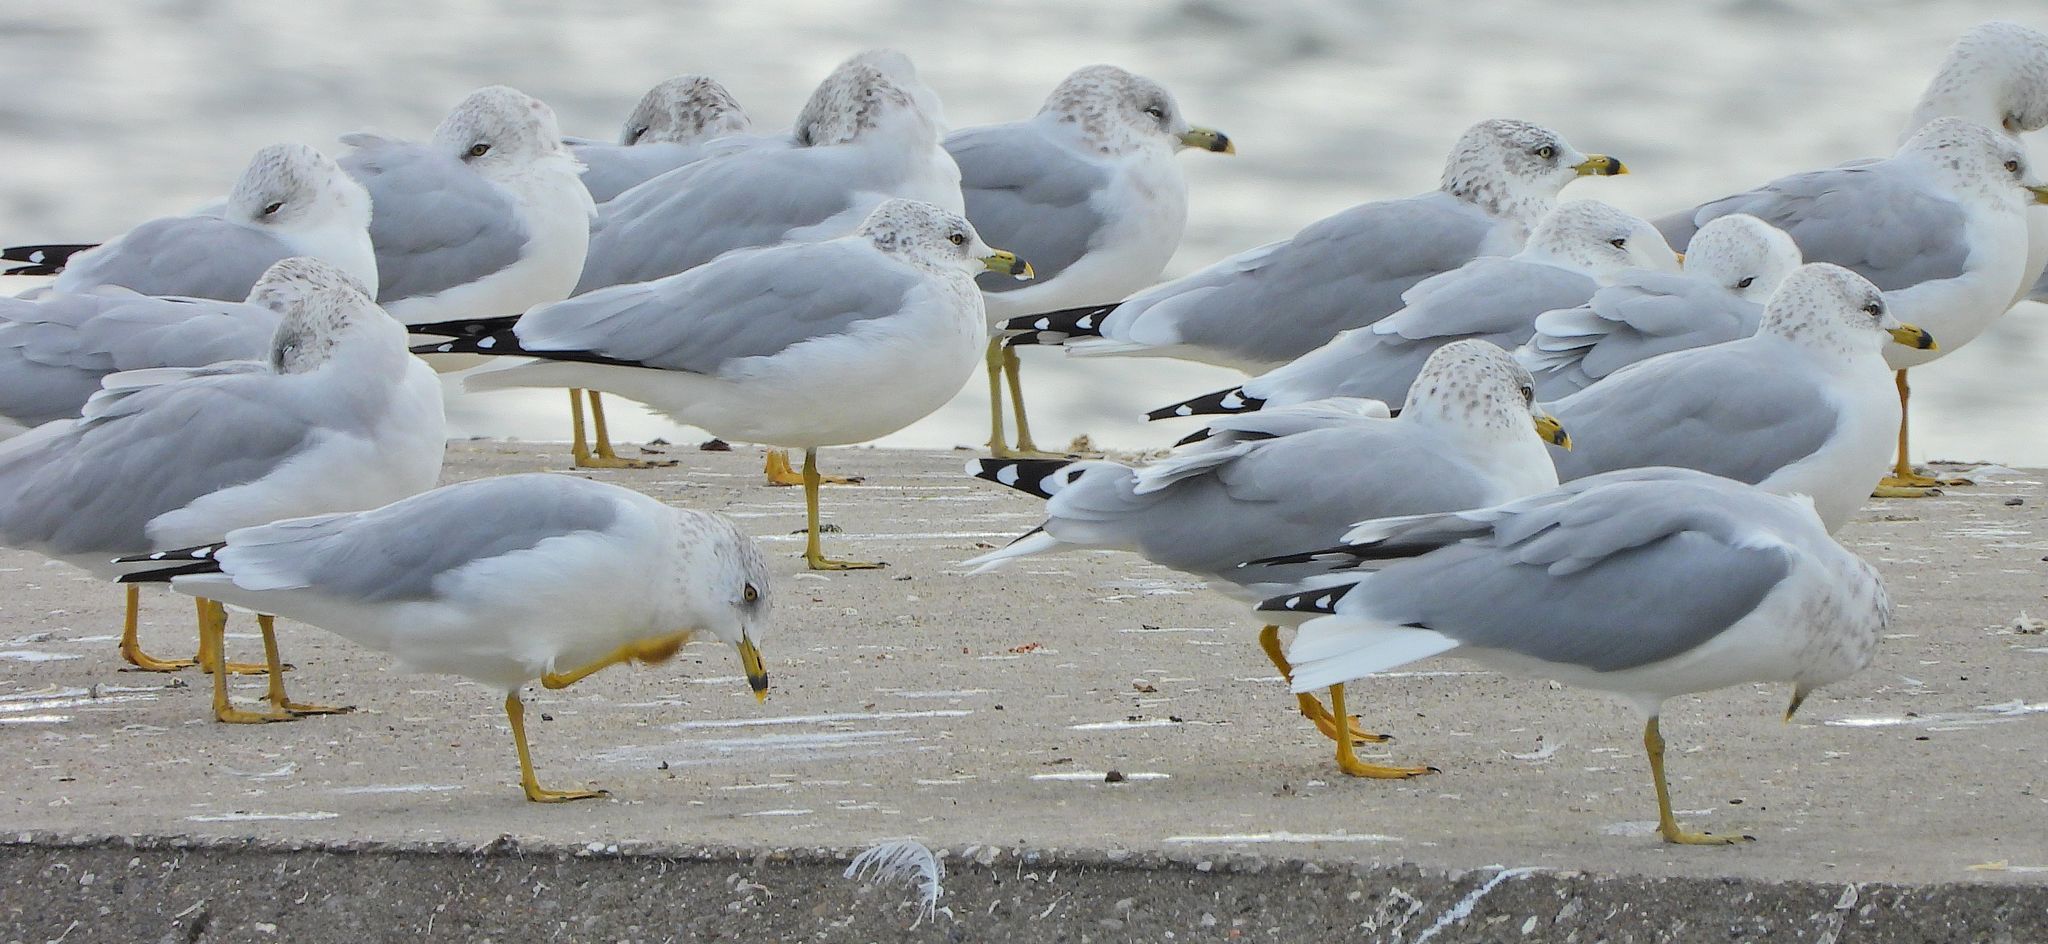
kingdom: Animalia
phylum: Chordata
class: Aves
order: Charadriiformes
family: Laridae
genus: Larus
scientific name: Larus delawarensis
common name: Ring-billed gull
